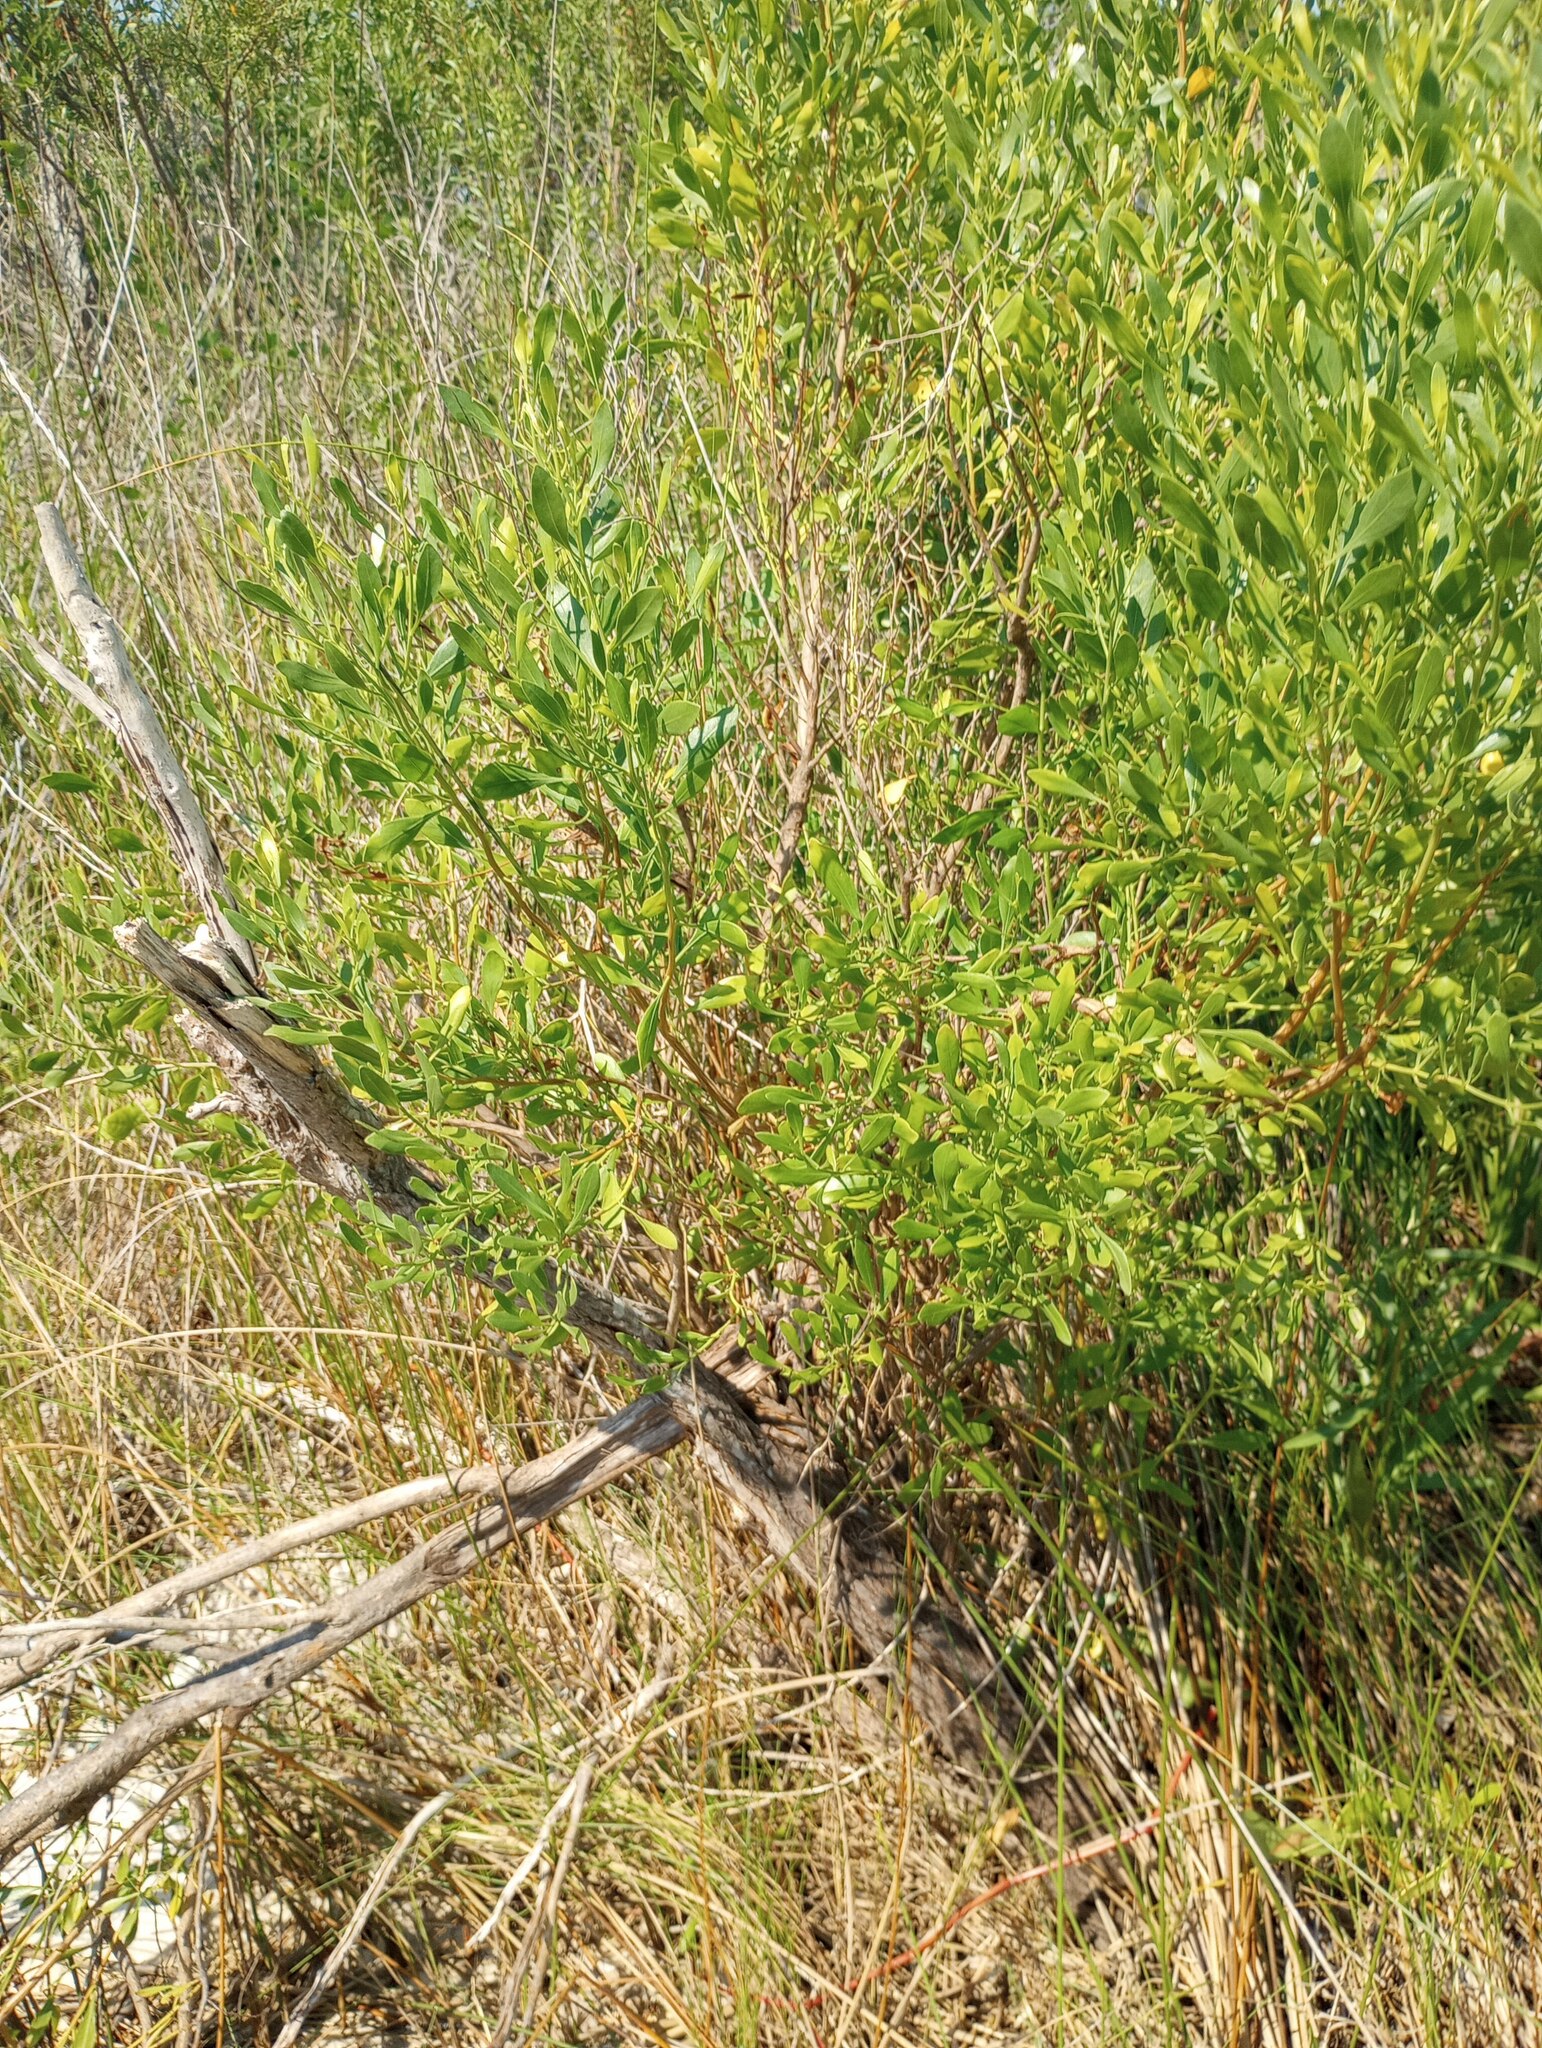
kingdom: Plantae
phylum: Tracheophyta
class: Magnoliopsida
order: Asterales
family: Asteraceae
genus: Baccharis
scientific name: Baccharis halimifolia
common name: Eastern baccharis
